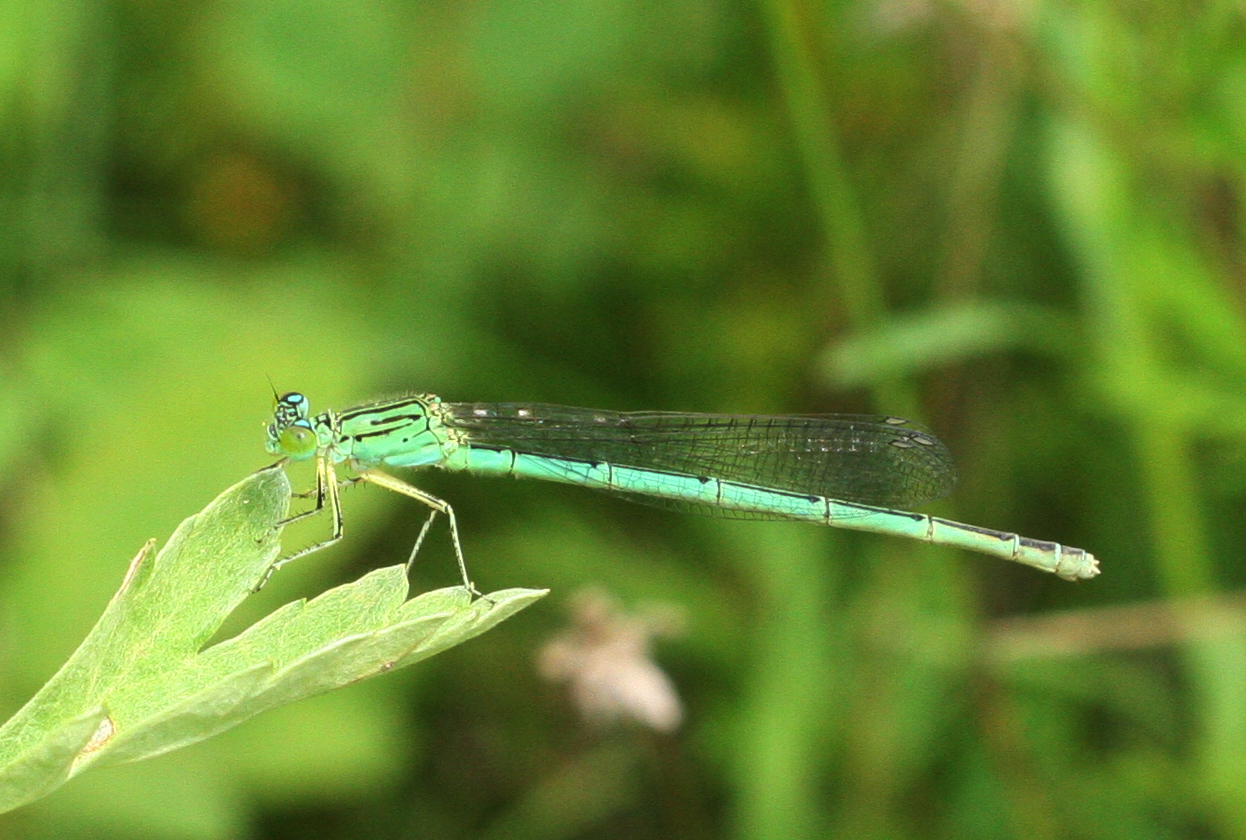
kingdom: Animalia
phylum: Arthropoda
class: Insecta
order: Odonata
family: Coenagrionidae
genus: Paracercion
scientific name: Paracercion plagiosum
